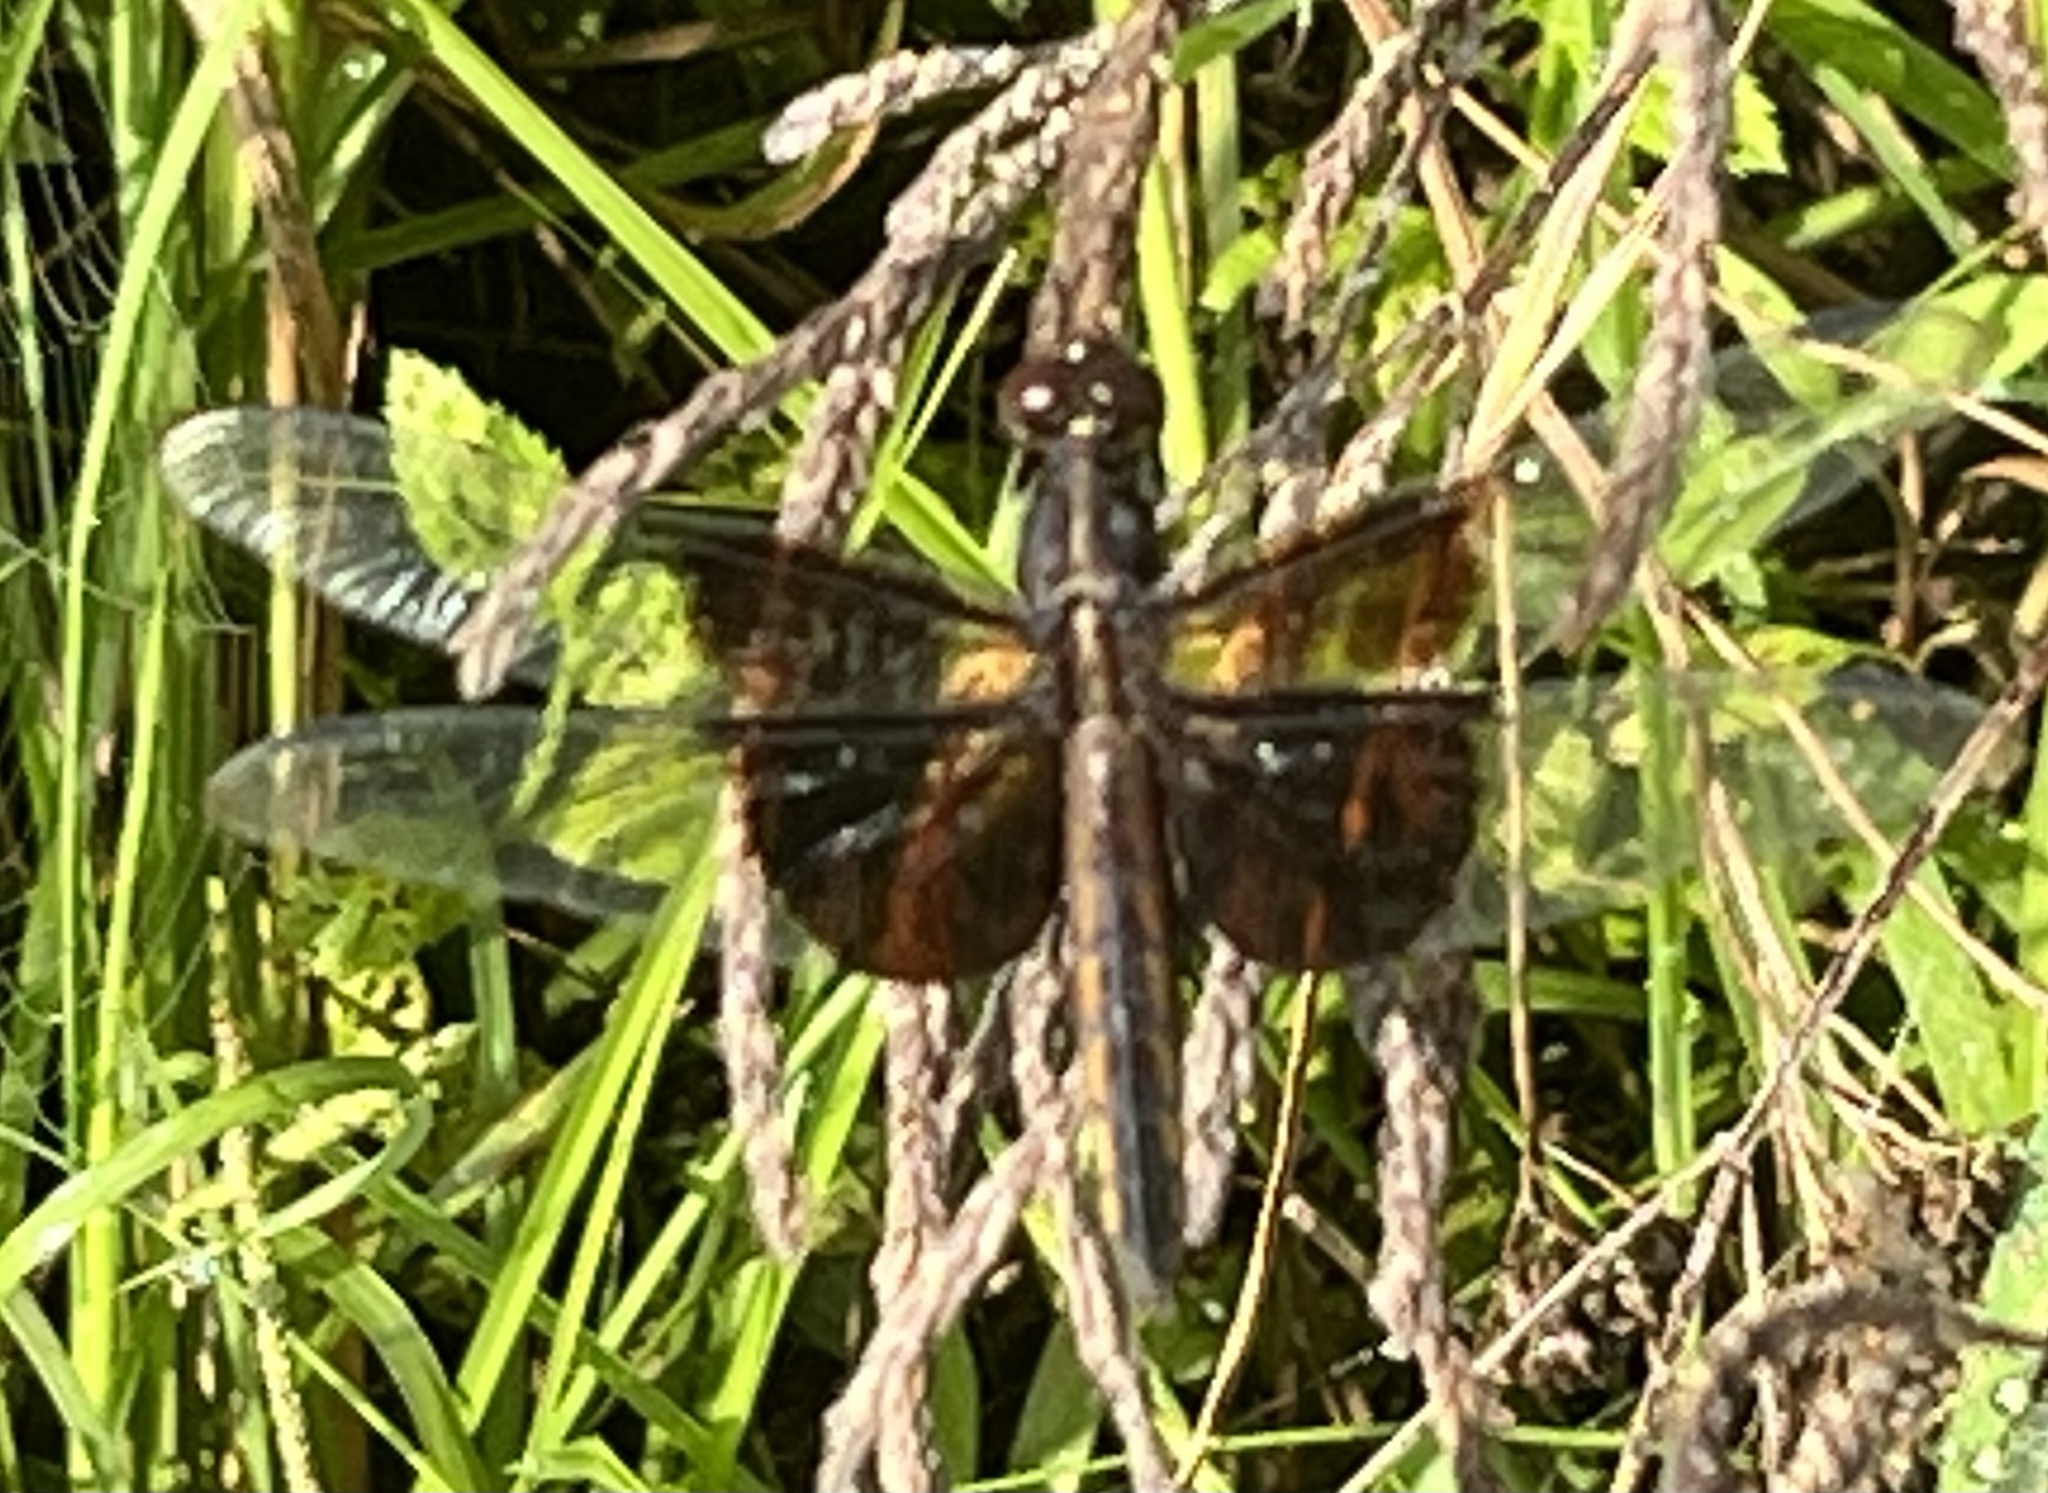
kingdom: Animalia
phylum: Arthropoda
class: Insecta
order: Odonata
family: Libellulidae
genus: Libellula
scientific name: Libellula luctuosa
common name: Widow skimmer
